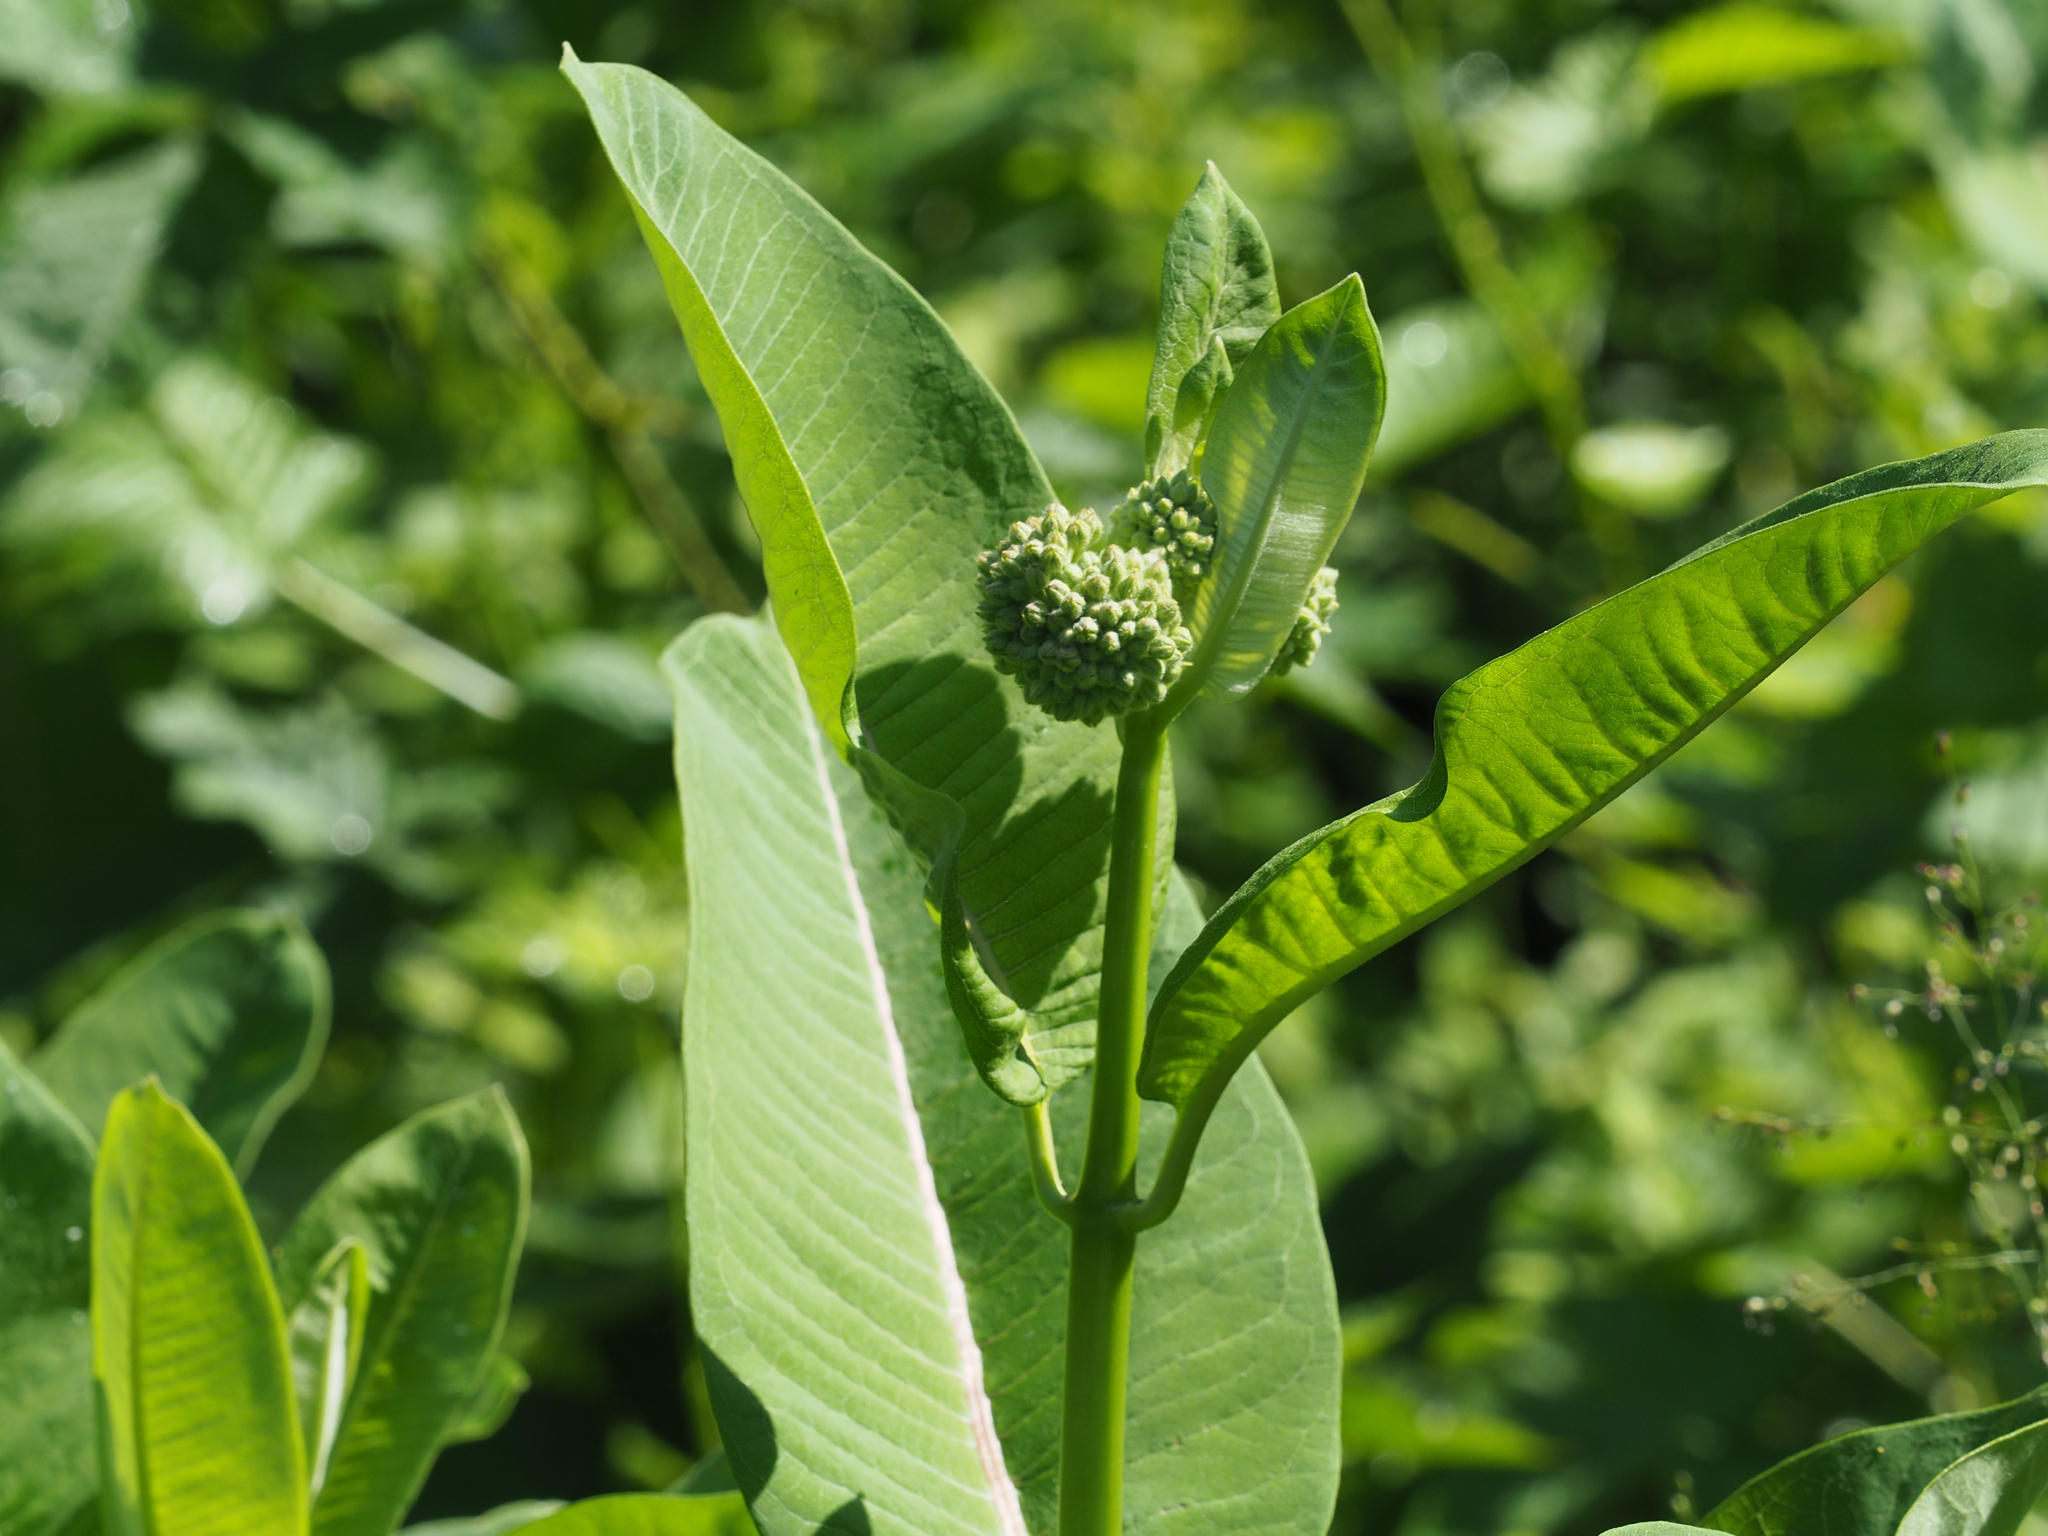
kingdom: Plantae
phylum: Tracheophyta
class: Magnoliopsida
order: Gentianales
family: Apocynaceae
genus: Asclepias
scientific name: Asclepias syriaca
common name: Common milkweed
